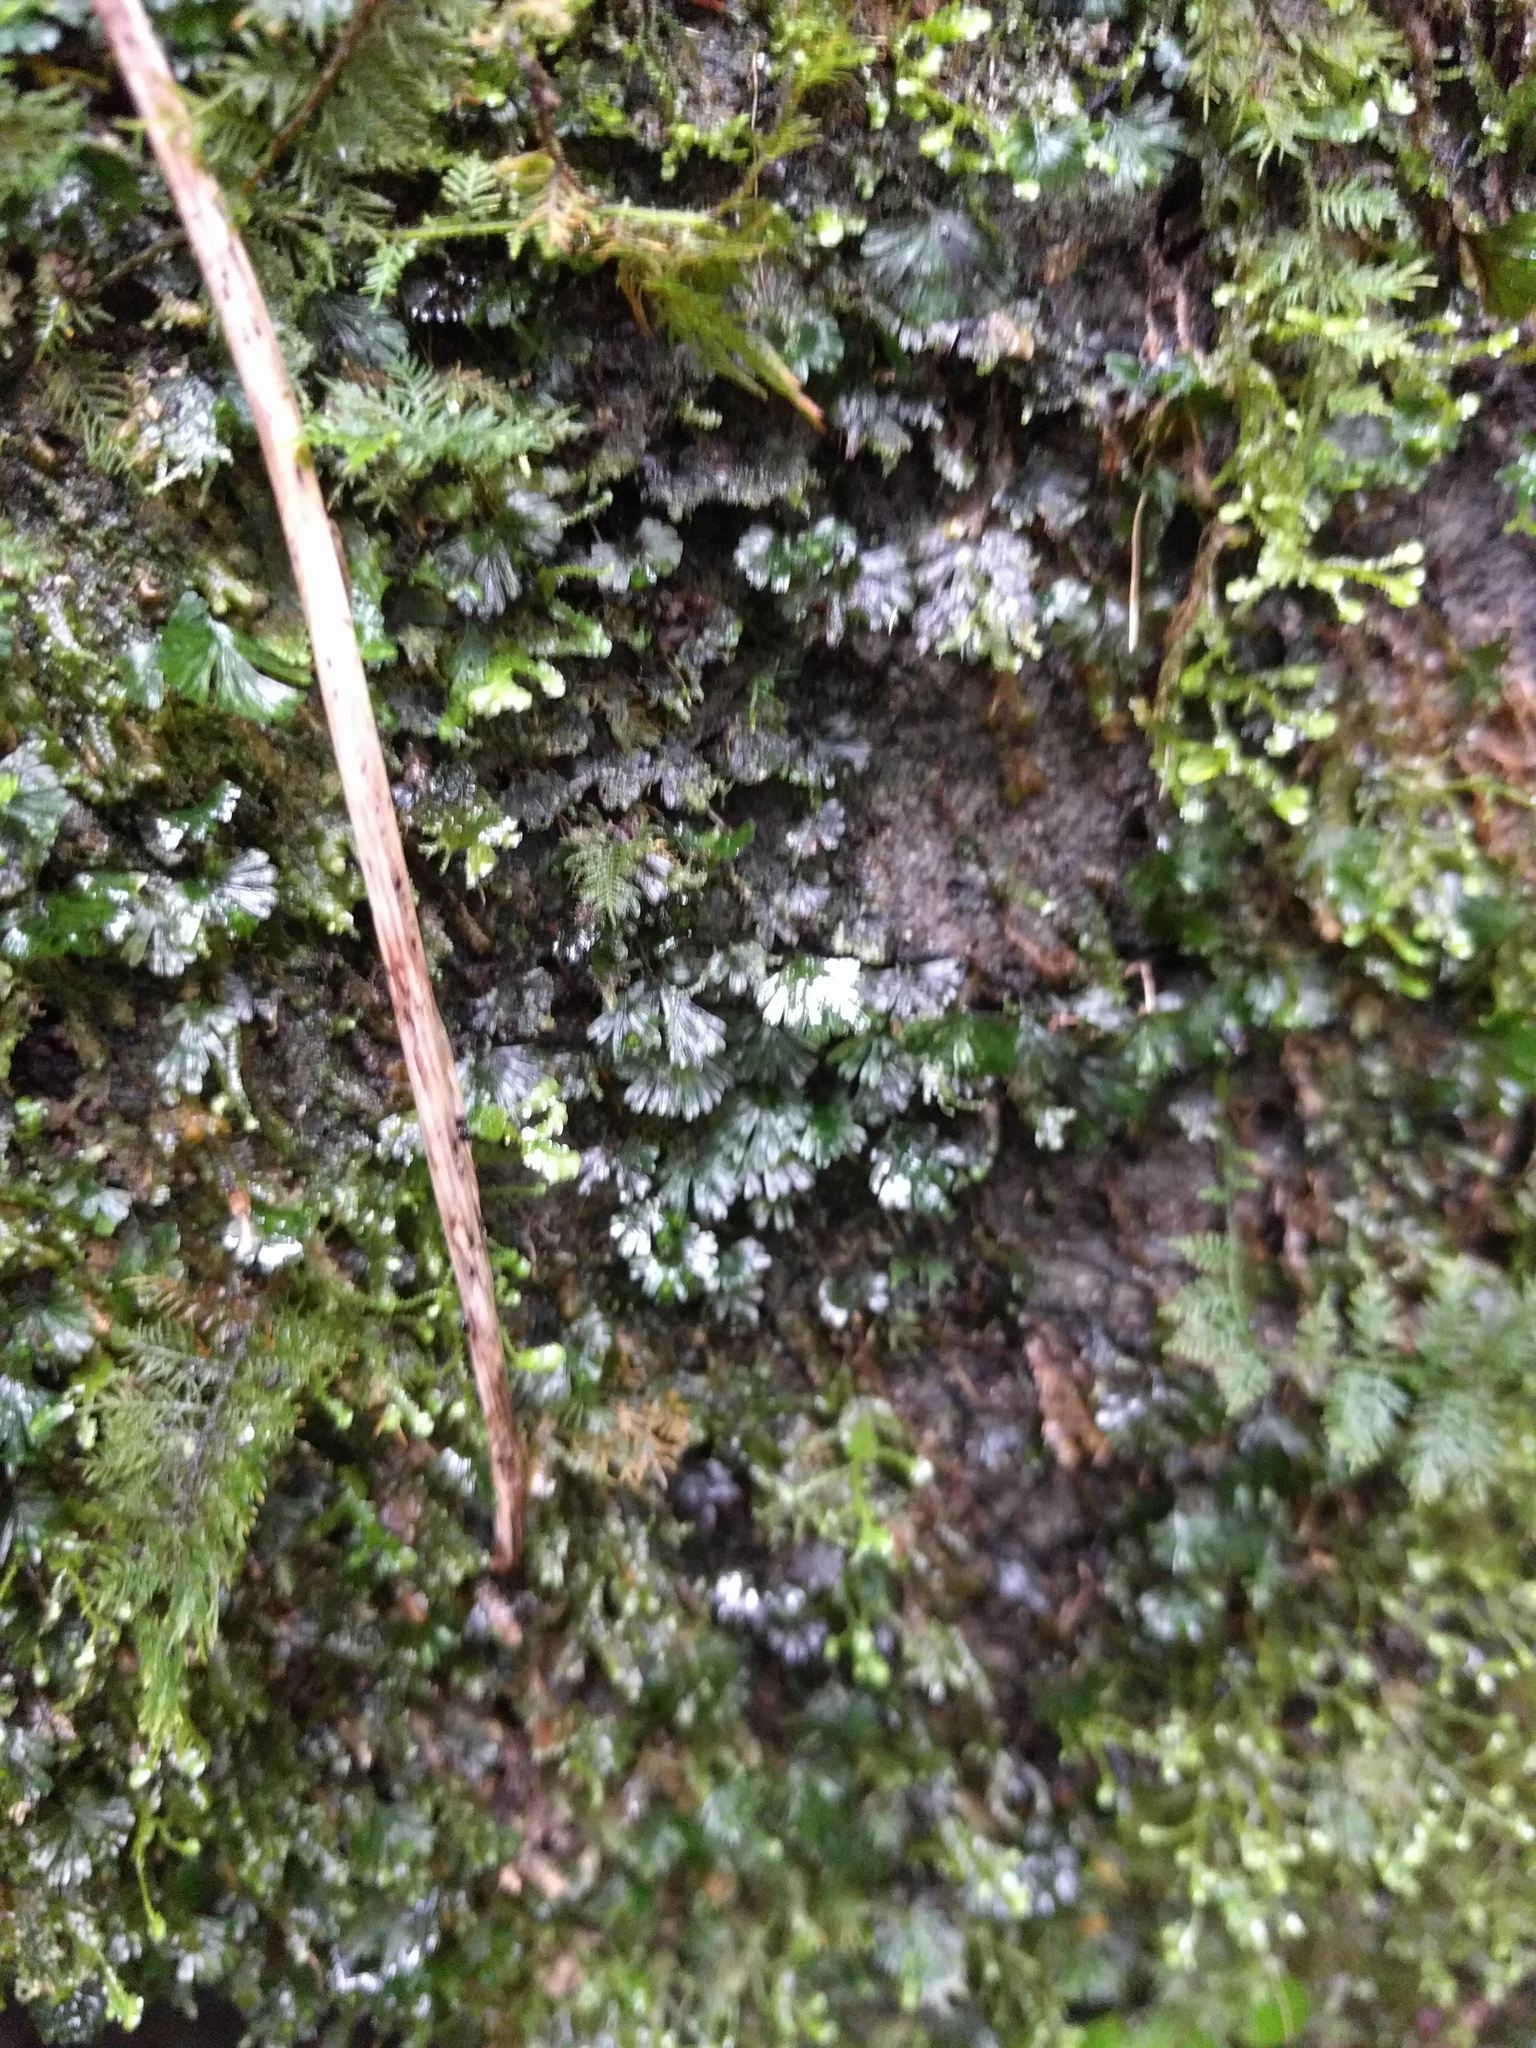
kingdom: Plantae
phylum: Tracheophyta
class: Polypodiopsida
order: Hymenophyllales
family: Hymenophyllaceae
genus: Crepidomanes
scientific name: Crepidomanes parvulum
